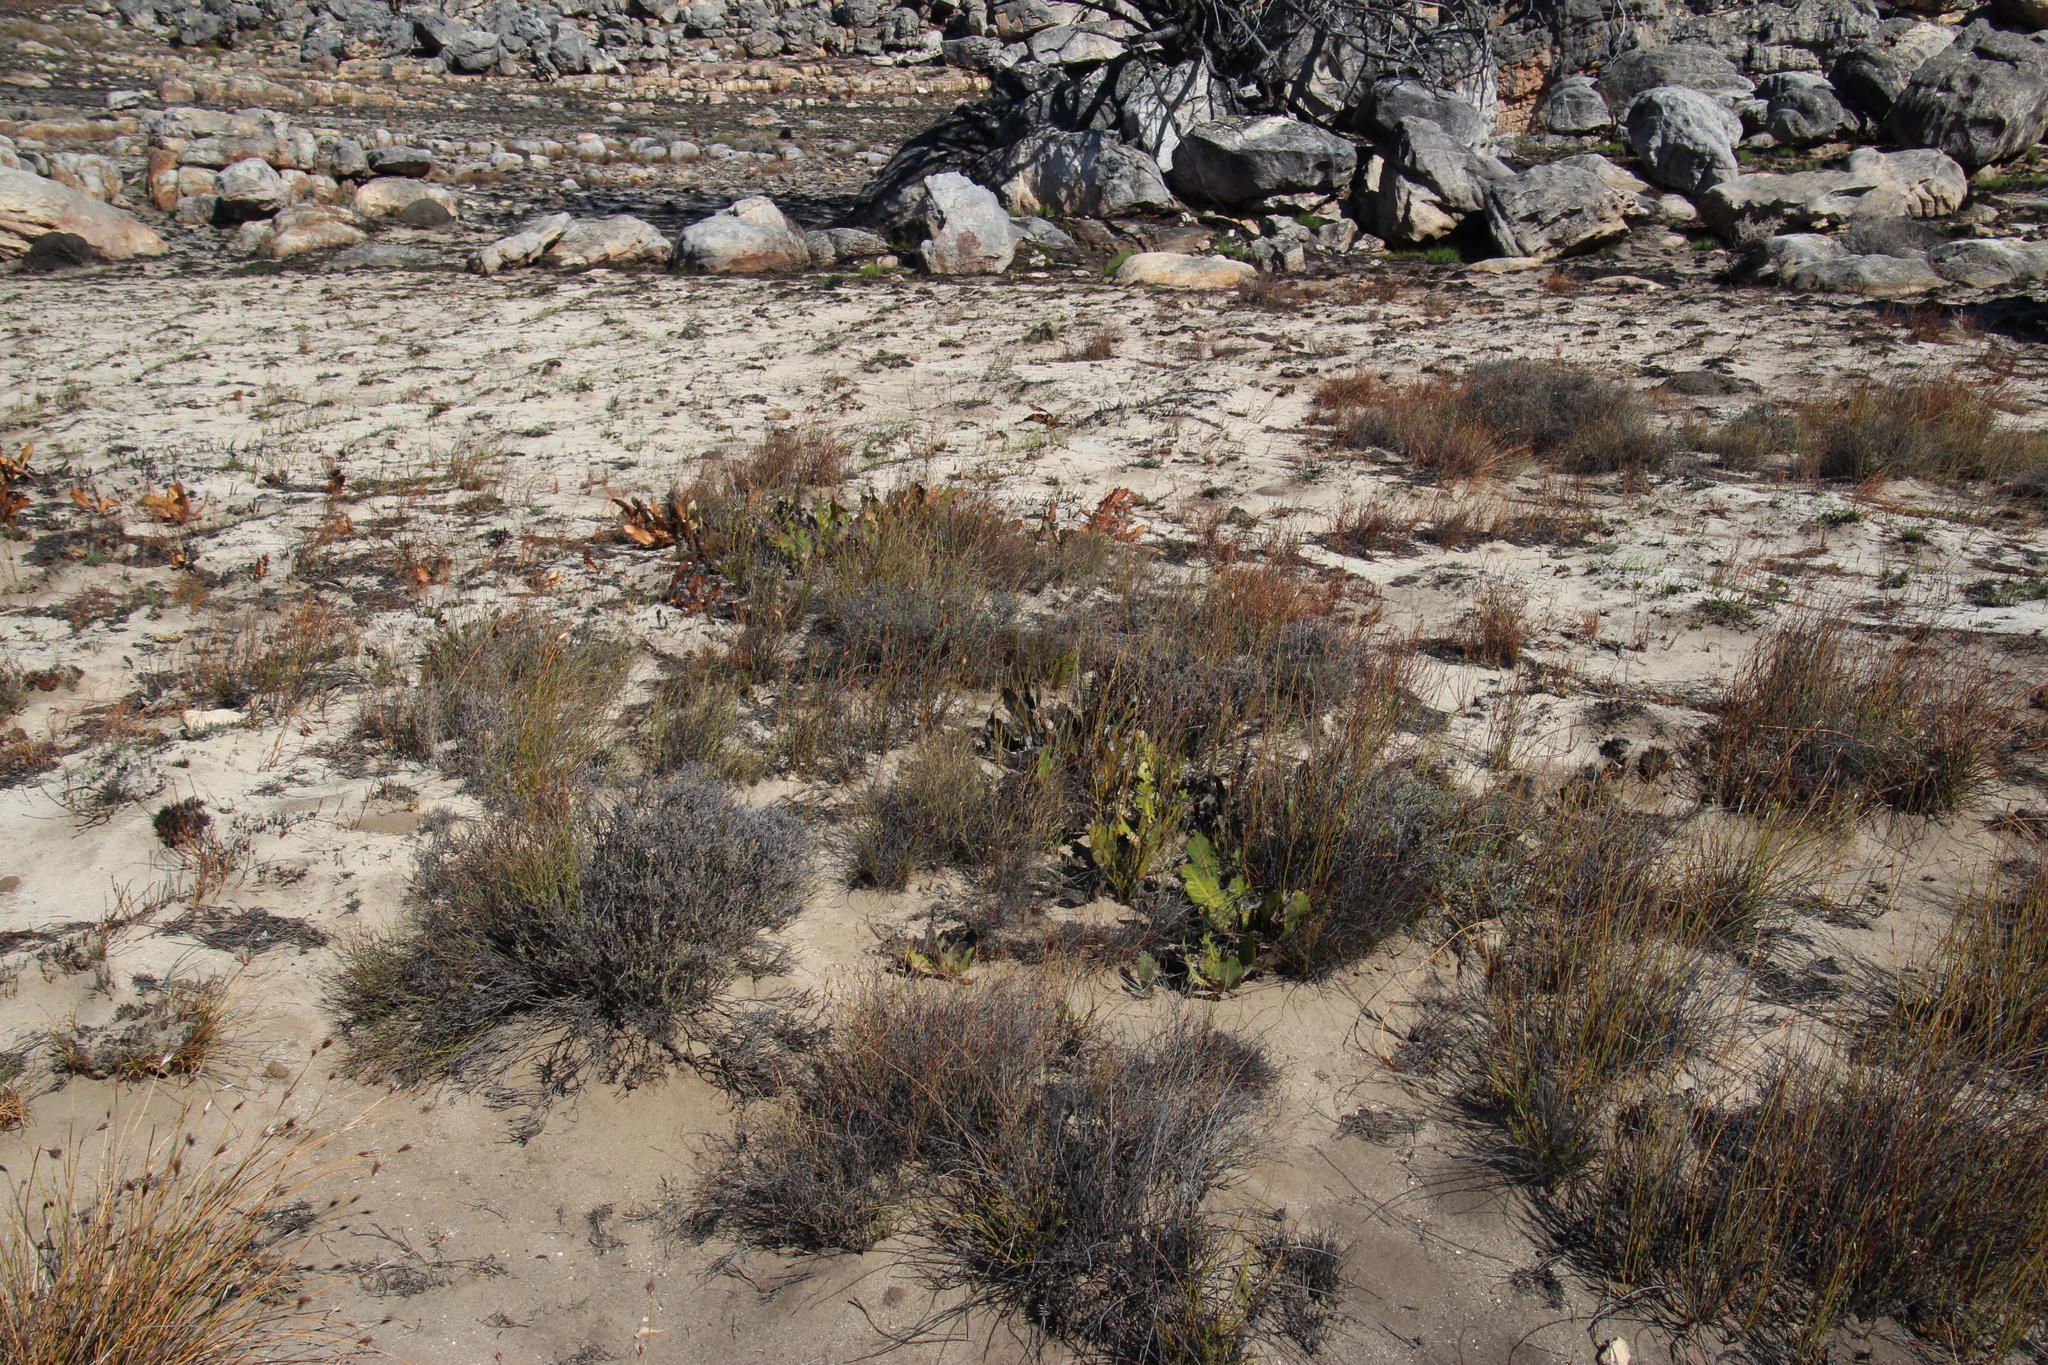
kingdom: Plantae
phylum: Tracheophyta
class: Magnoliopsida
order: Proteales
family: Proteaceae
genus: Protea
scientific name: Protea scolopendriifolia
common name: Harts-tongue-fern sugarbush
